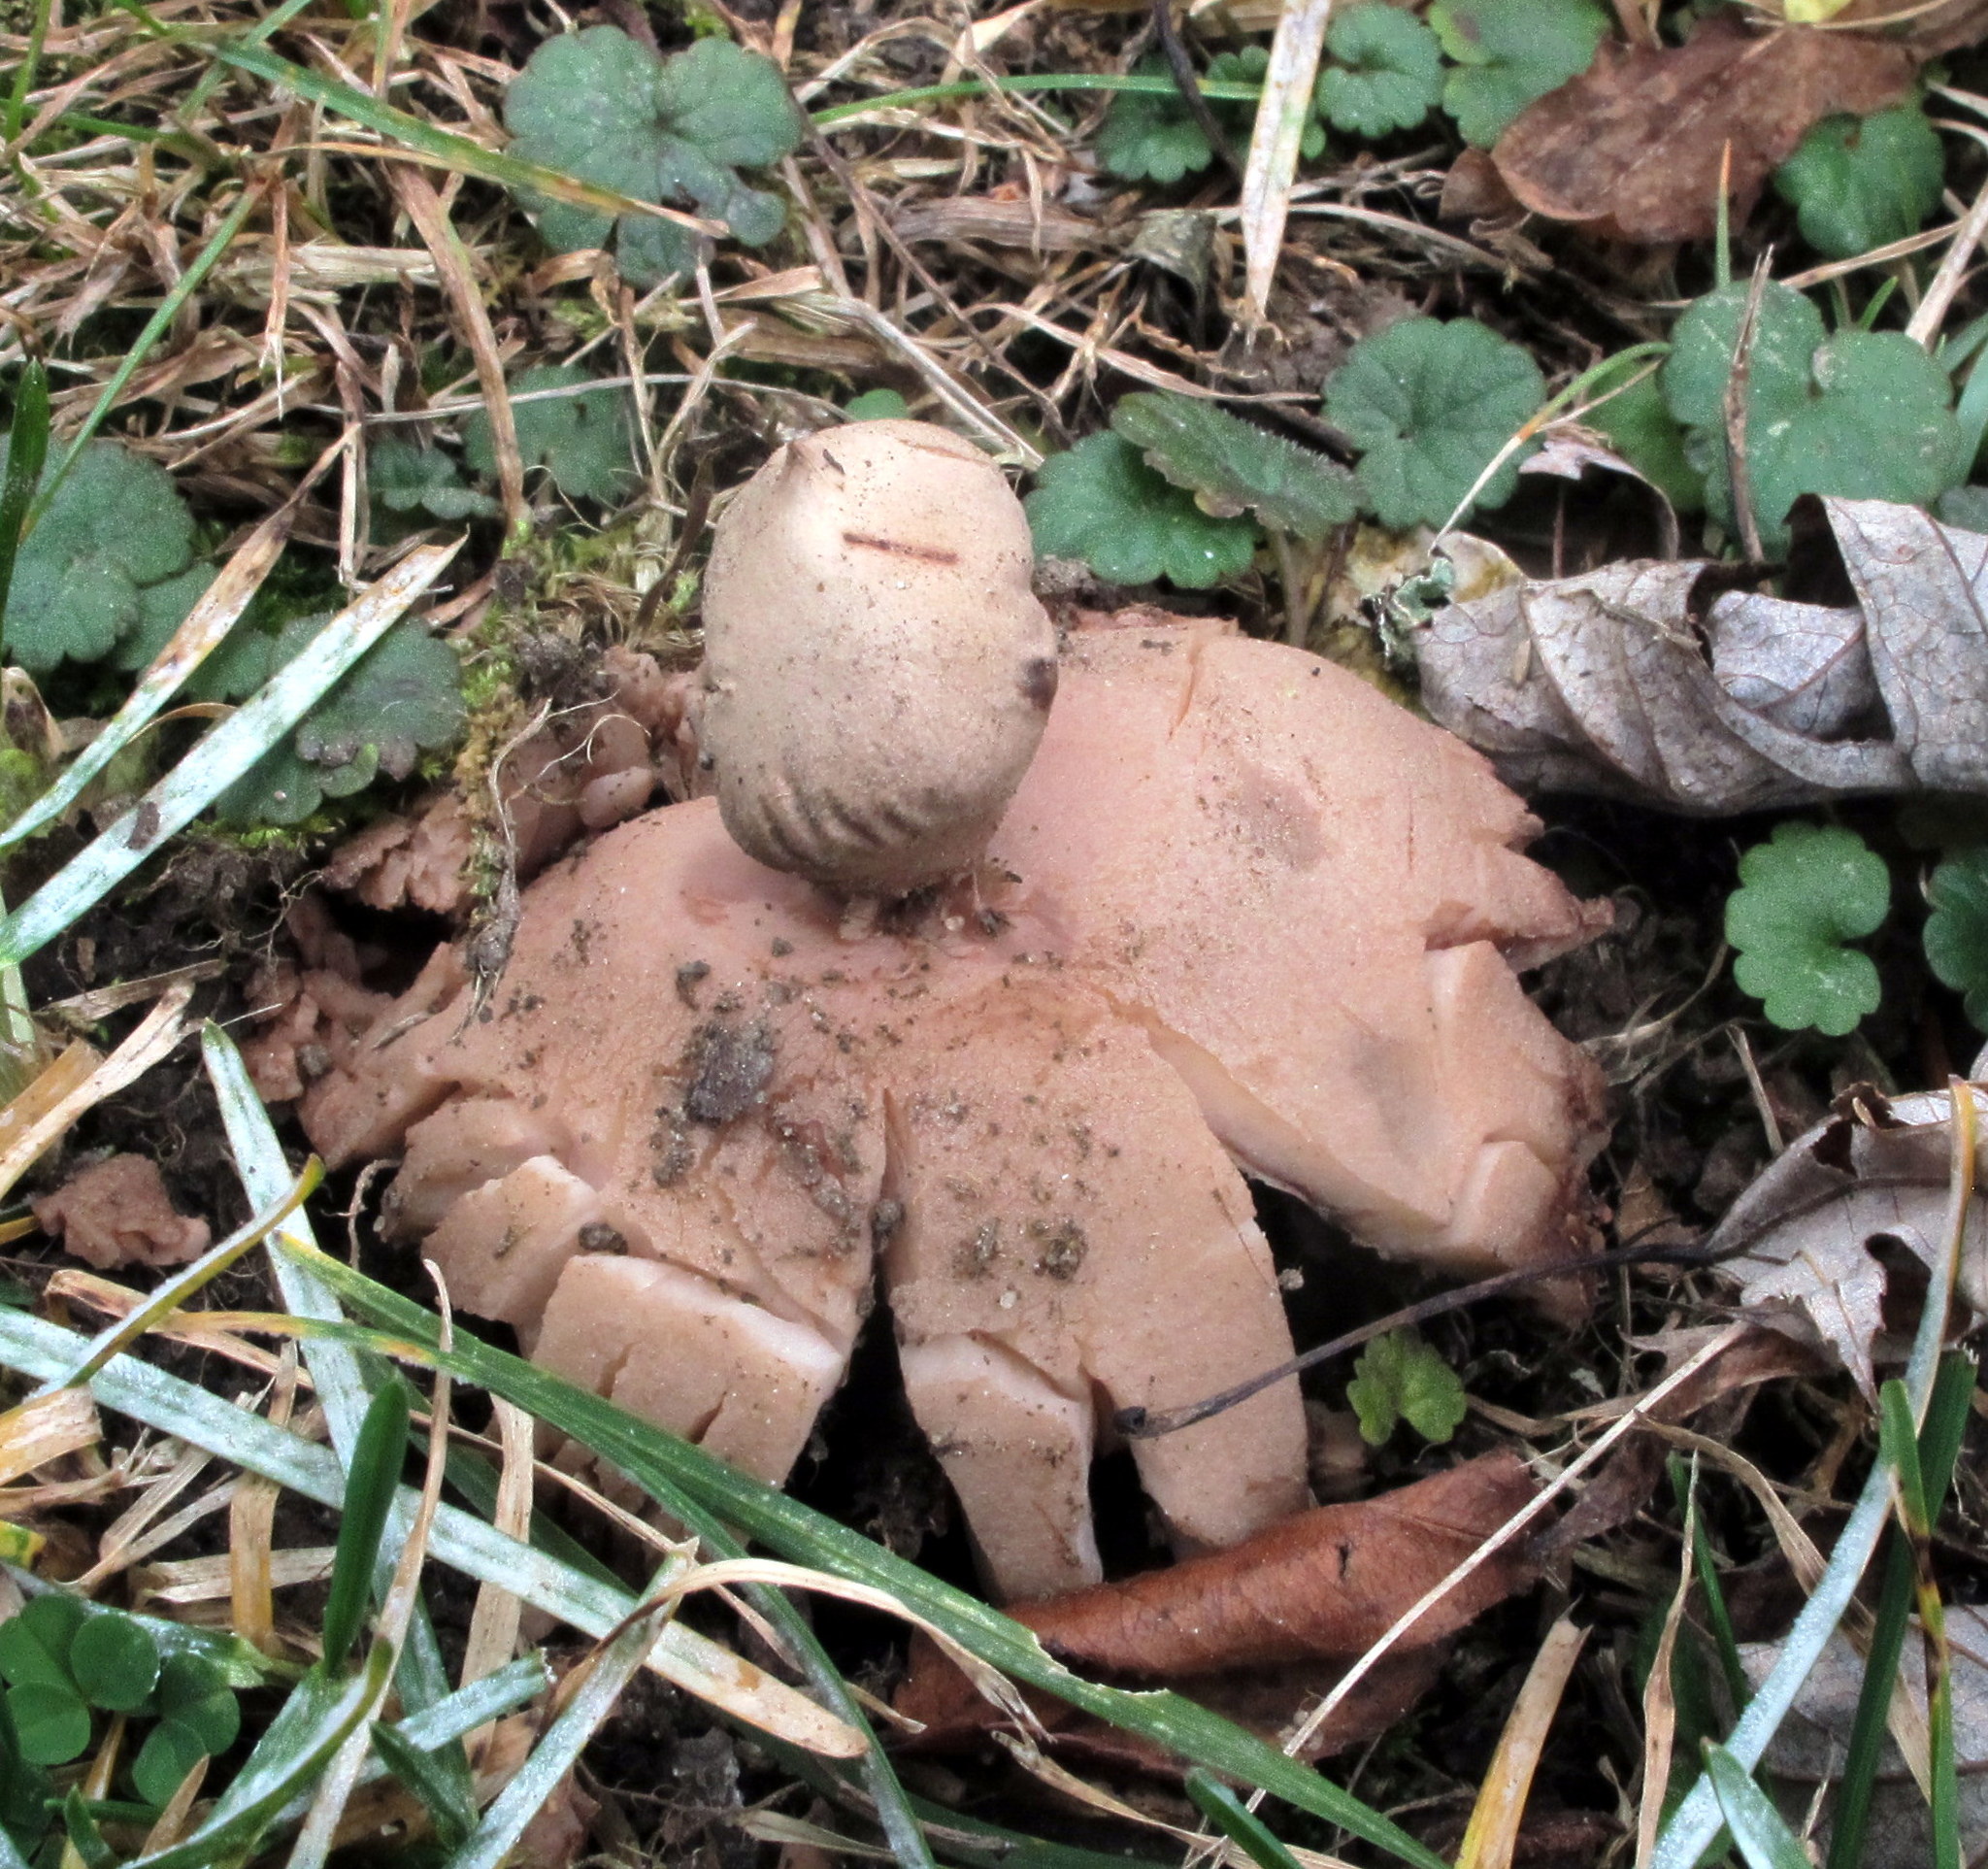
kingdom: Fungi
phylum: Basidiomycota
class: Agaricomycetes
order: Geastrales
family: Geastraceae
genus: Geastrum
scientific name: Geastrum rufescens
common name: Rosy earthstar
